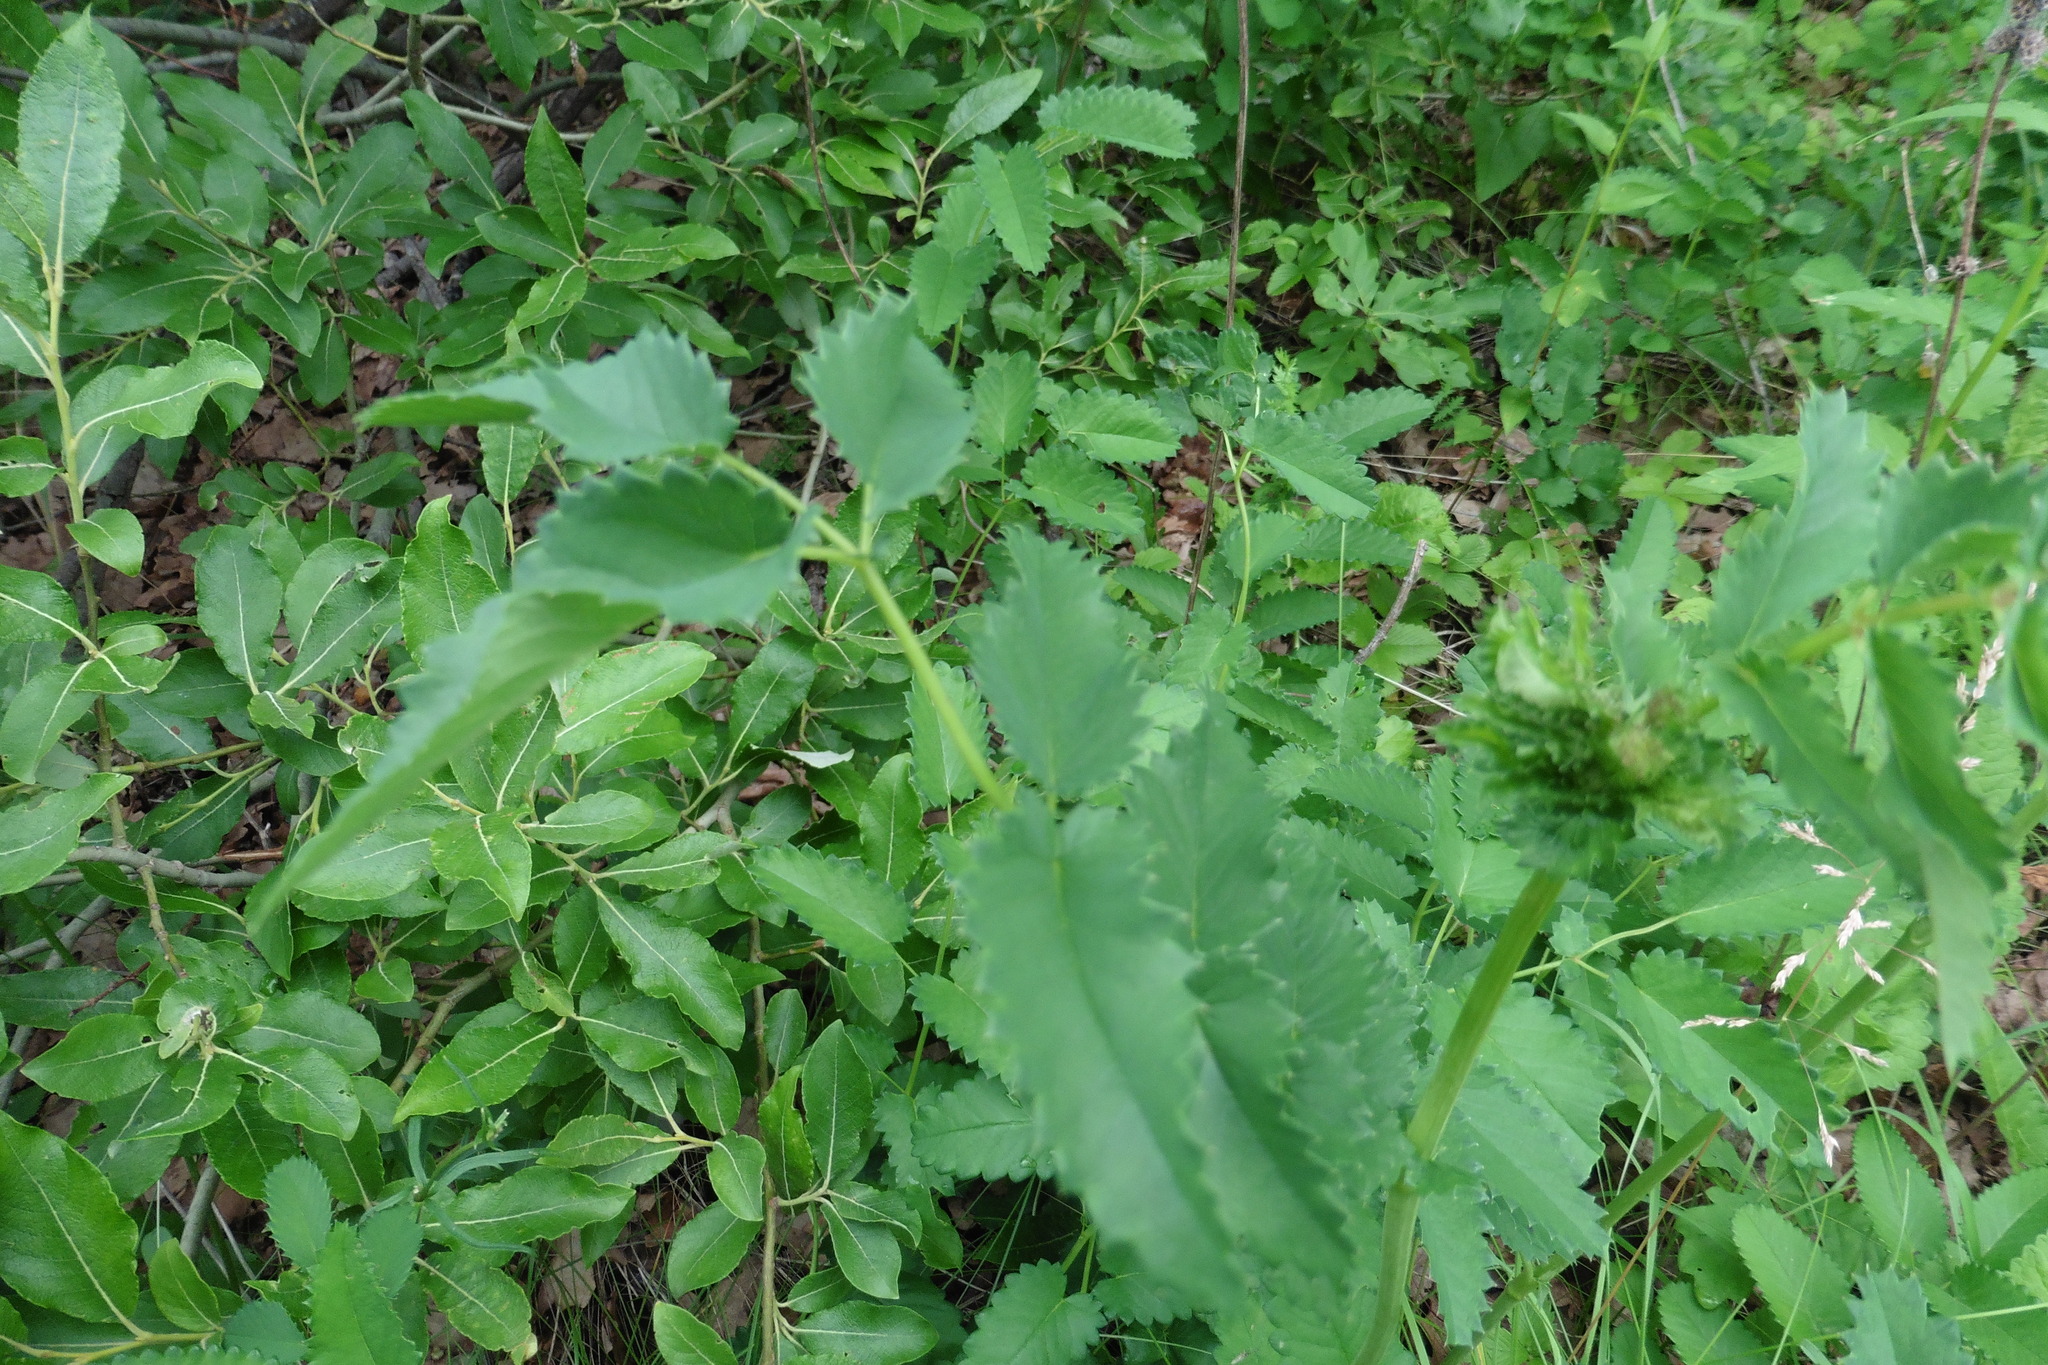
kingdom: Plantae
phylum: Tracheophyta
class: Magnoliopsida
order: Rosales
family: Rosaceae
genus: Sanguisorba
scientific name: Sanguisorba officinalis
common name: Great burnet
